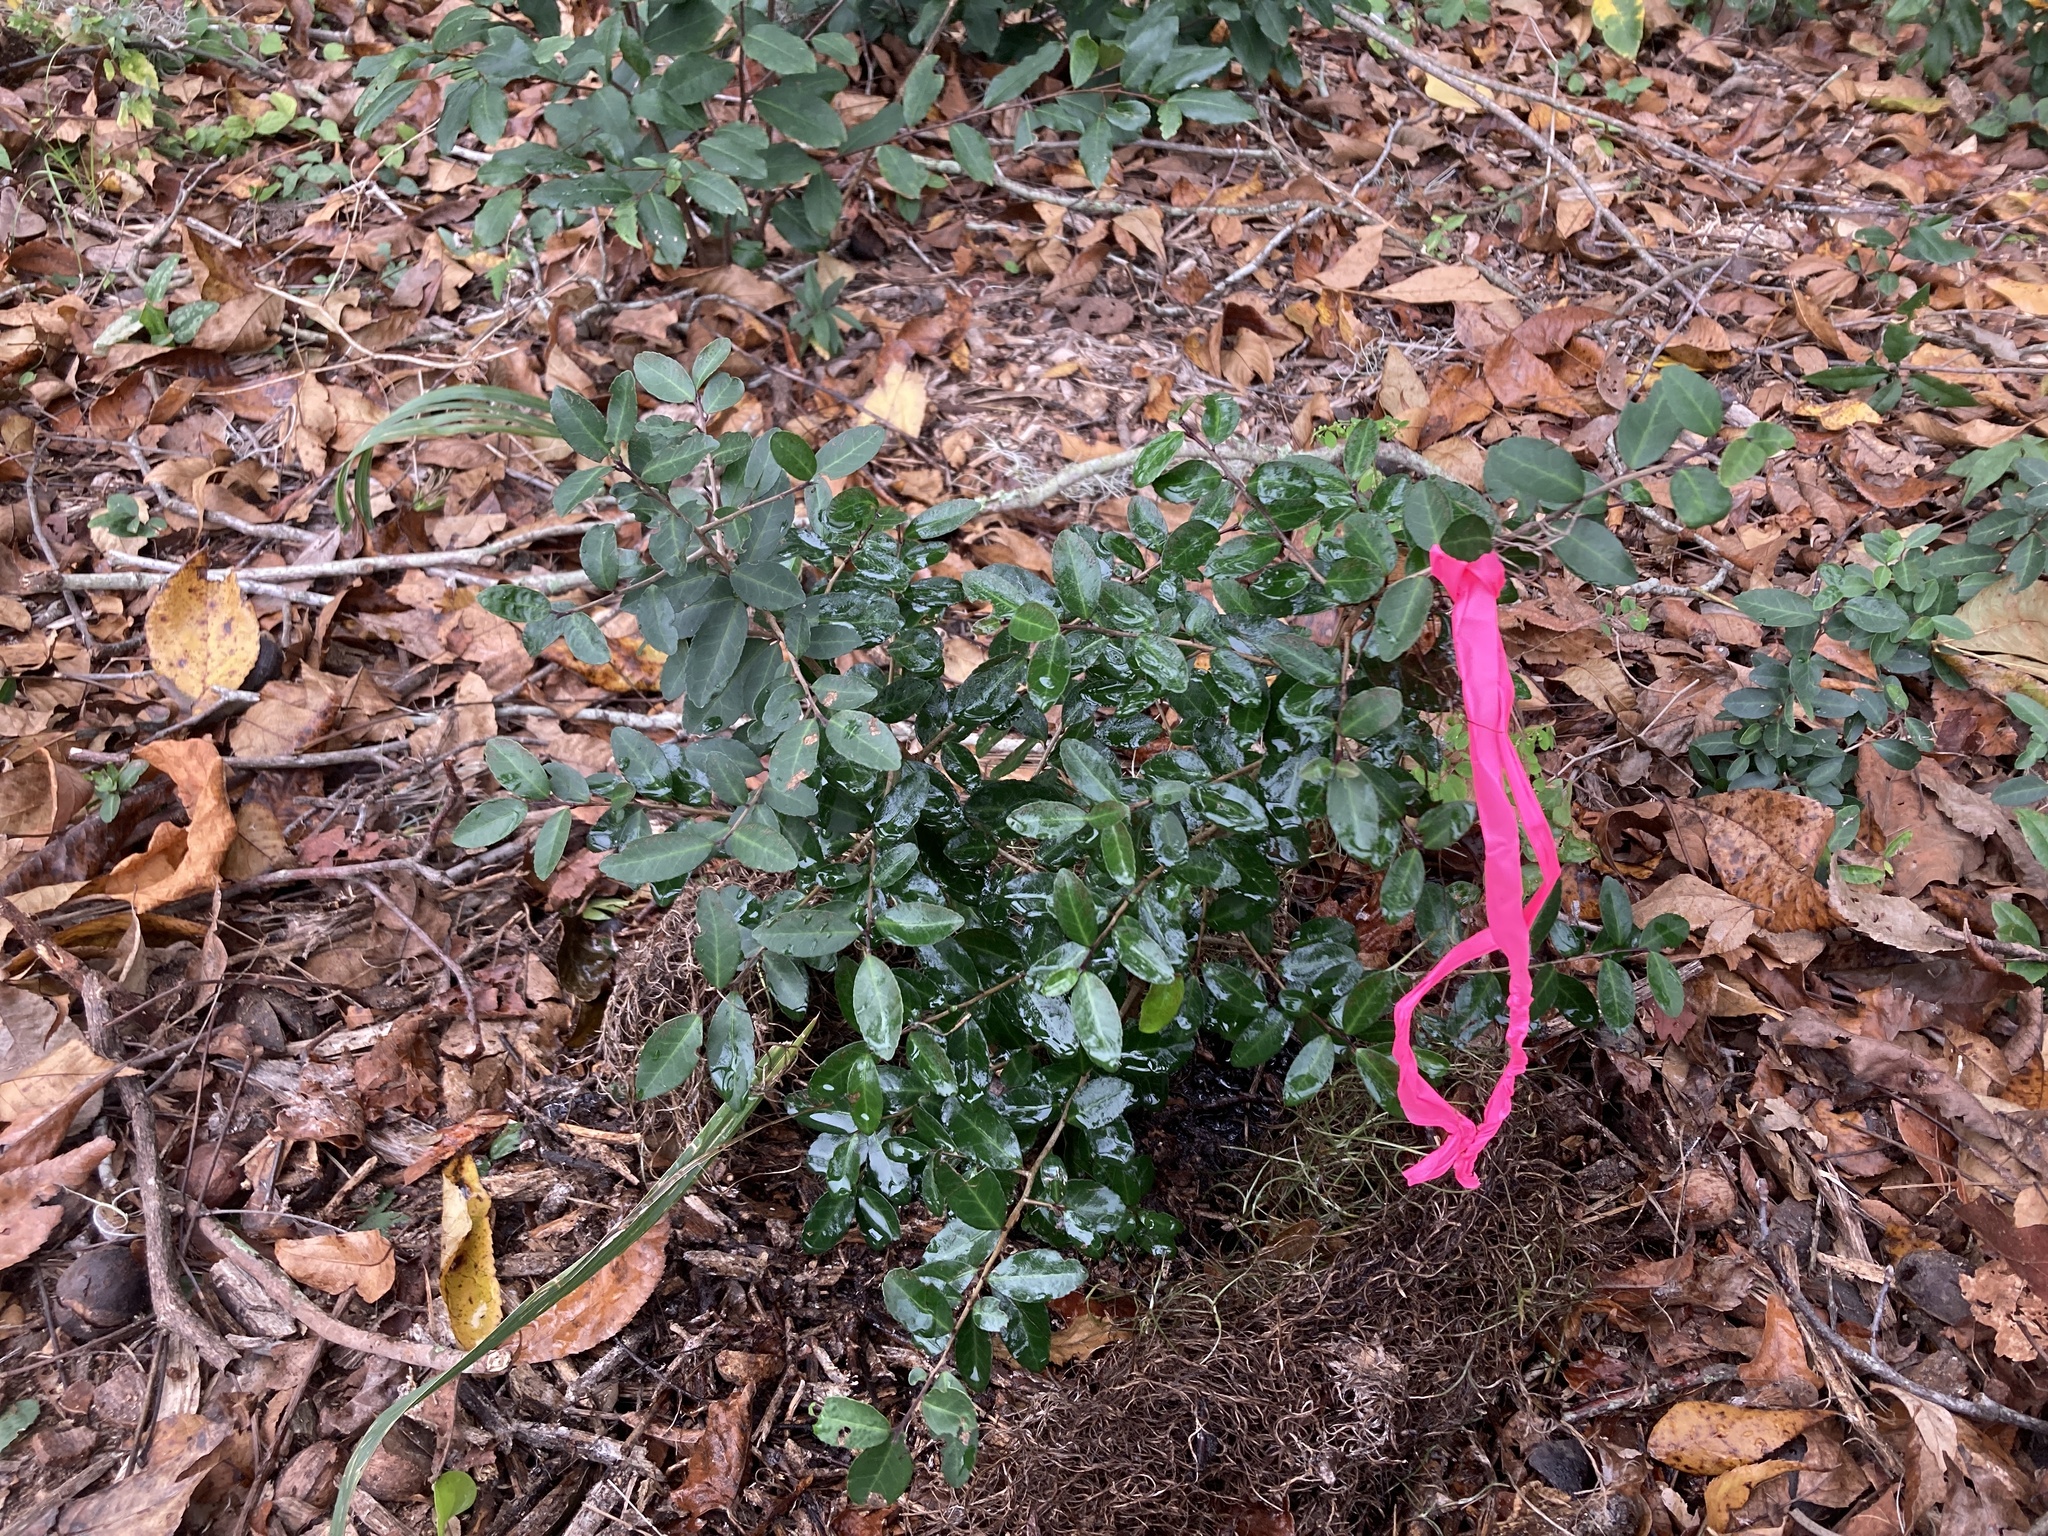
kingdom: Plantae
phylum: Tracheophyta
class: Magnoliopsida
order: Aquifoliales
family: Aquifoliaceae
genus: Ilex
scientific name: Ilex vomitoria
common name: Yaupon holly
